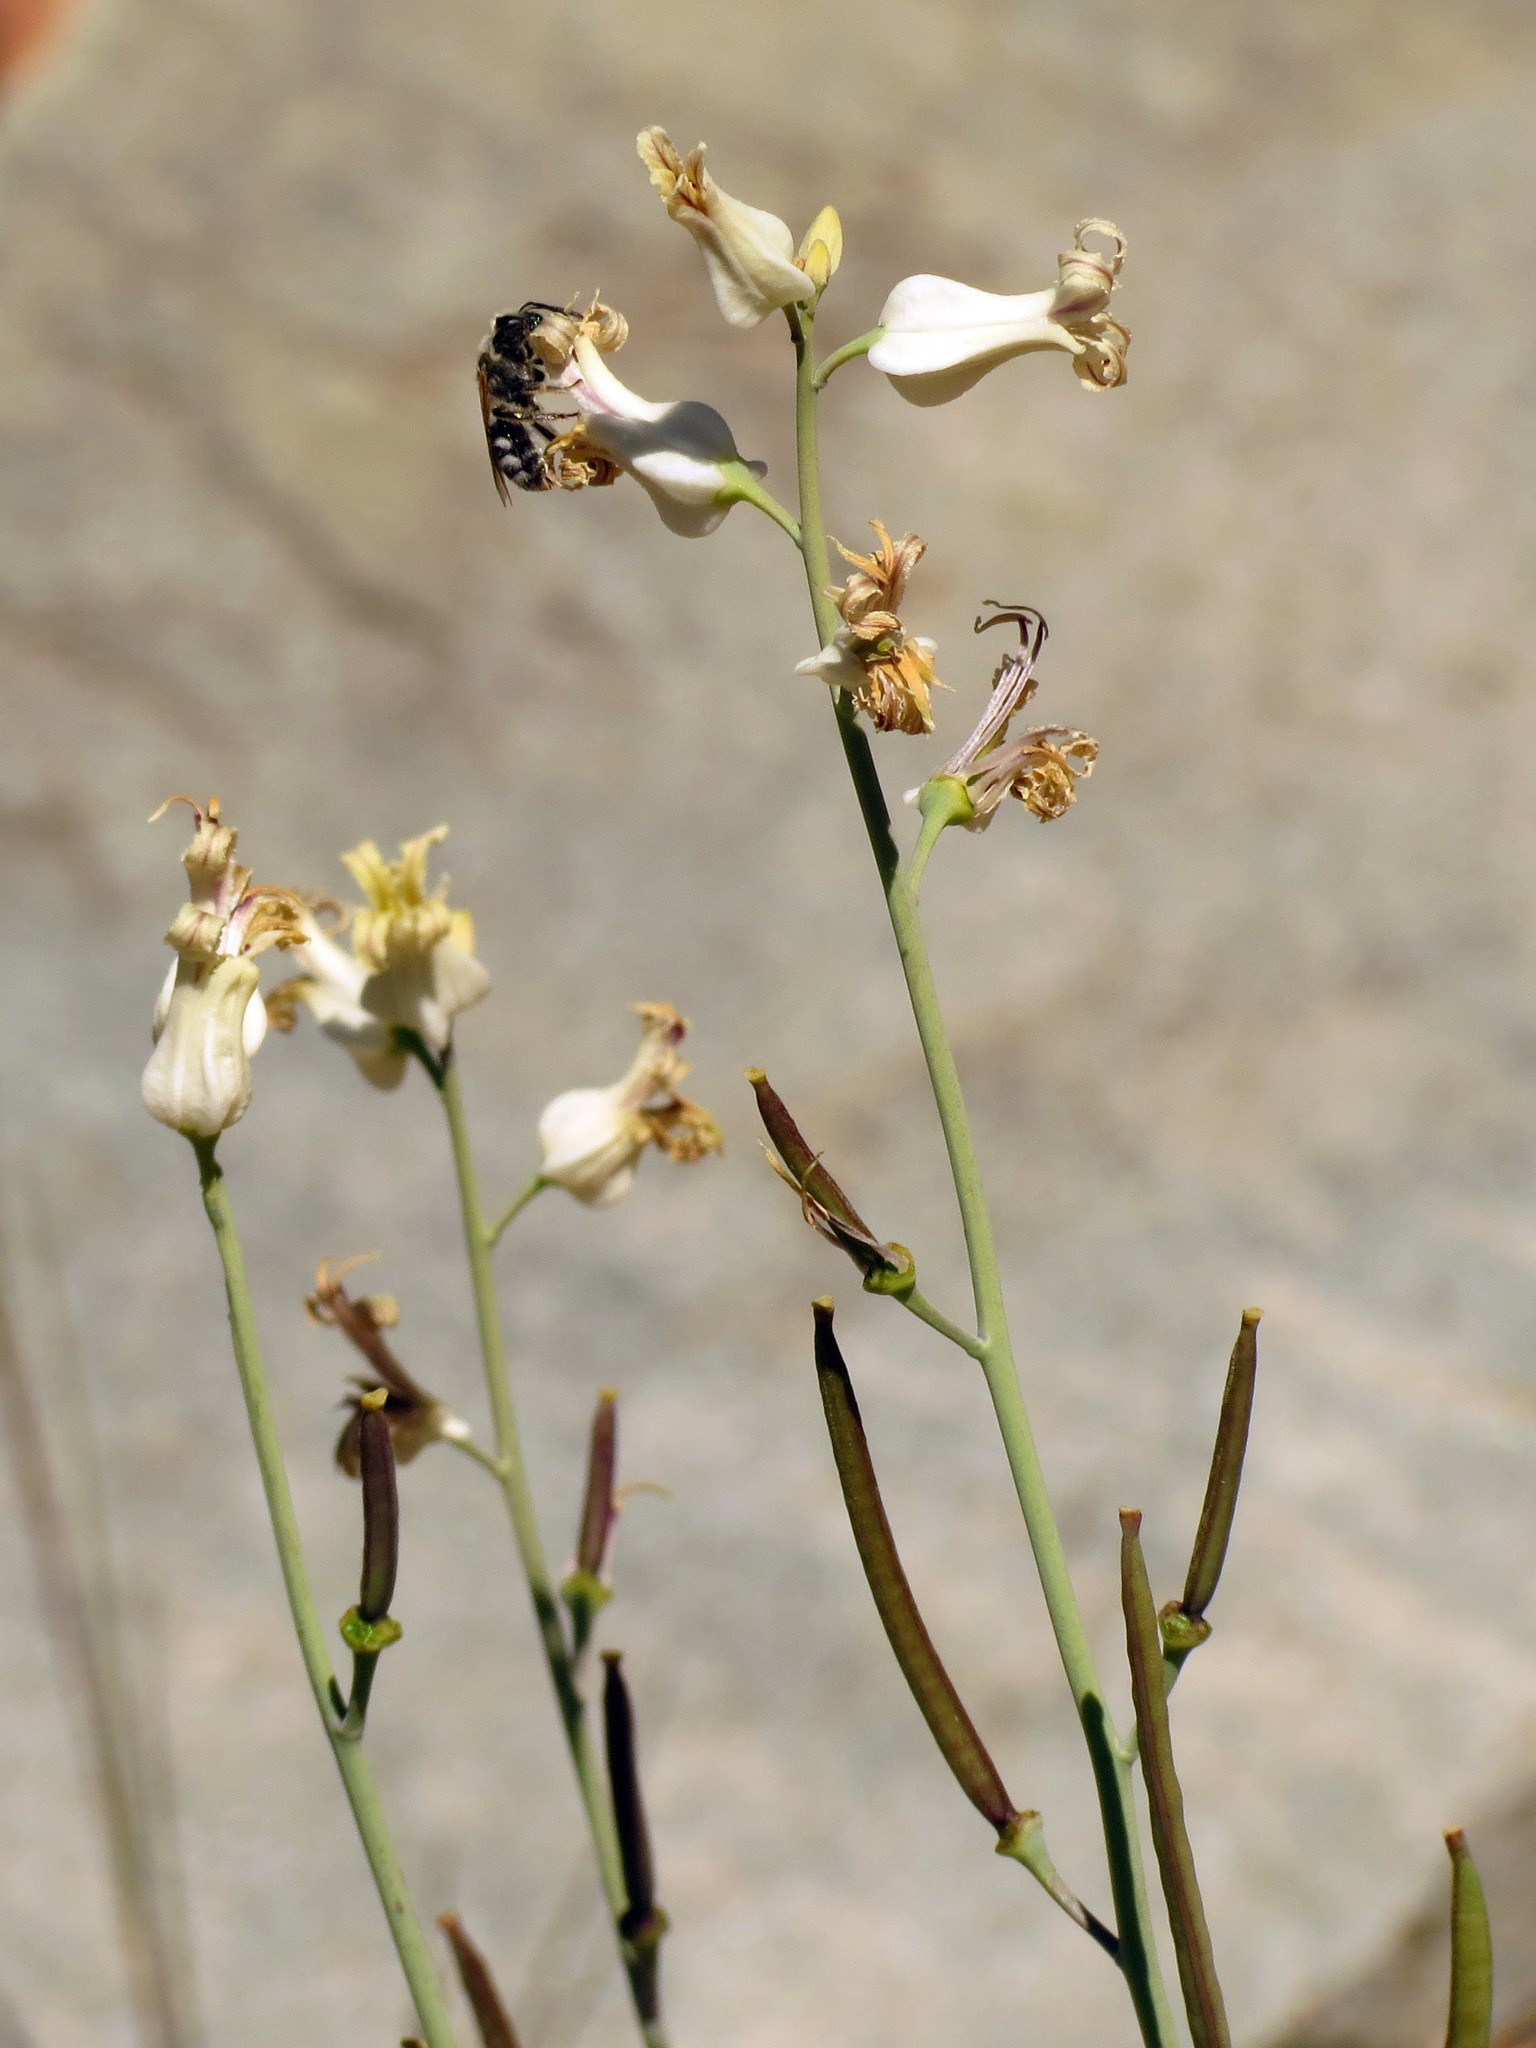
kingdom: Plantae
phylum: Tracheophyta
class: Magnoliopsida
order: Brassicales
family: Brassicaceae
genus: Streptanthus
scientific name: Streptanthus carinatus
